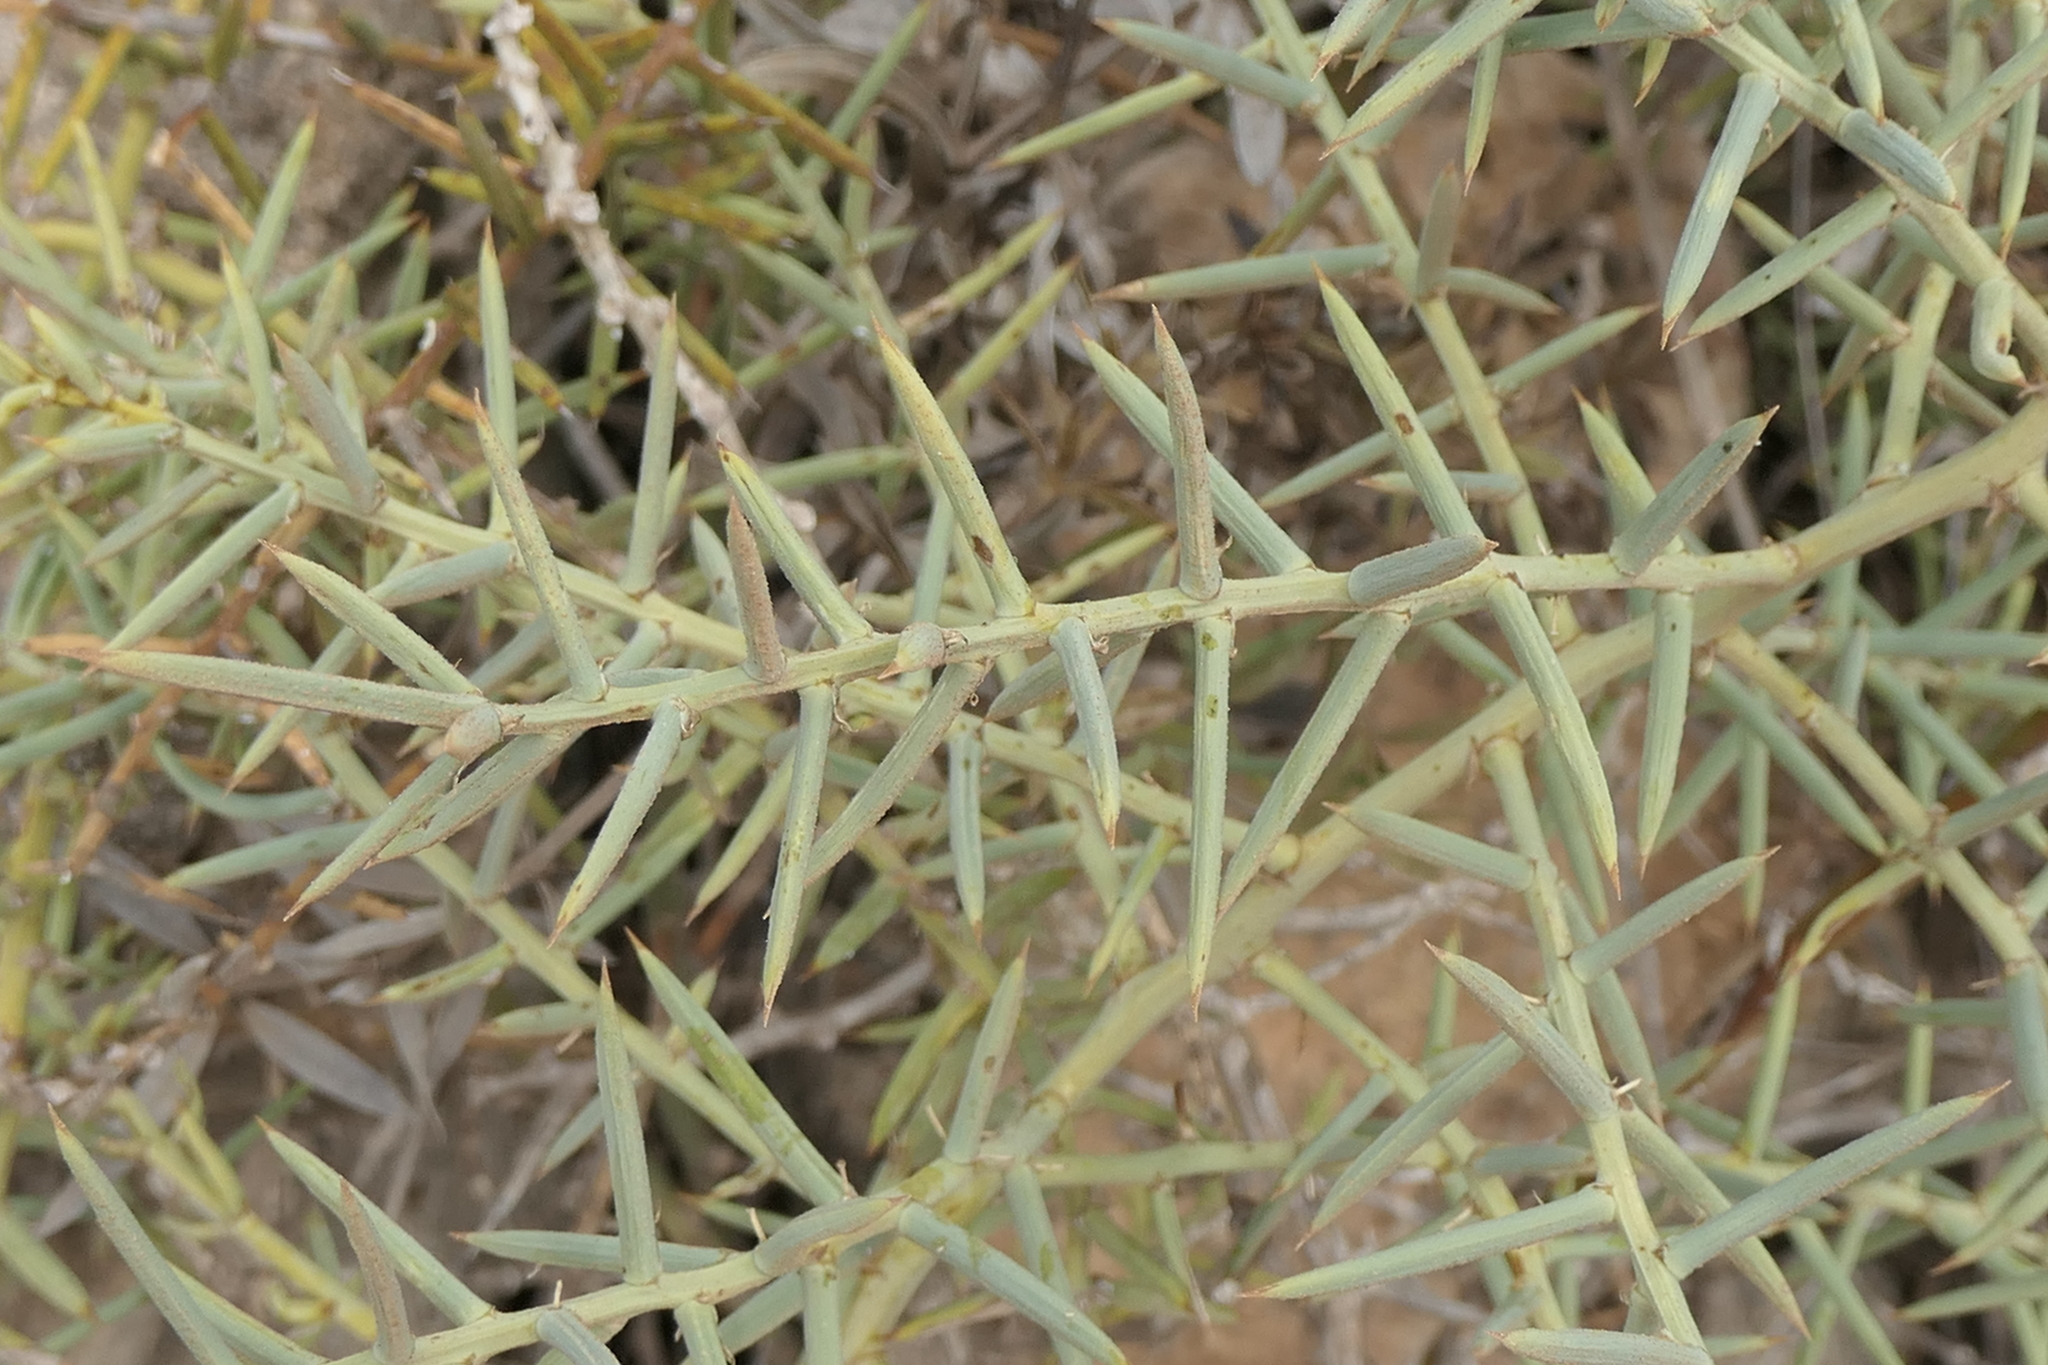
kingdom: Plantae
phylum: Tracheophyta
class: Liliopsida
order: Asparagales
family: Asparagaceae
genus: Asparagus
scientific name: Asparagus horridus
